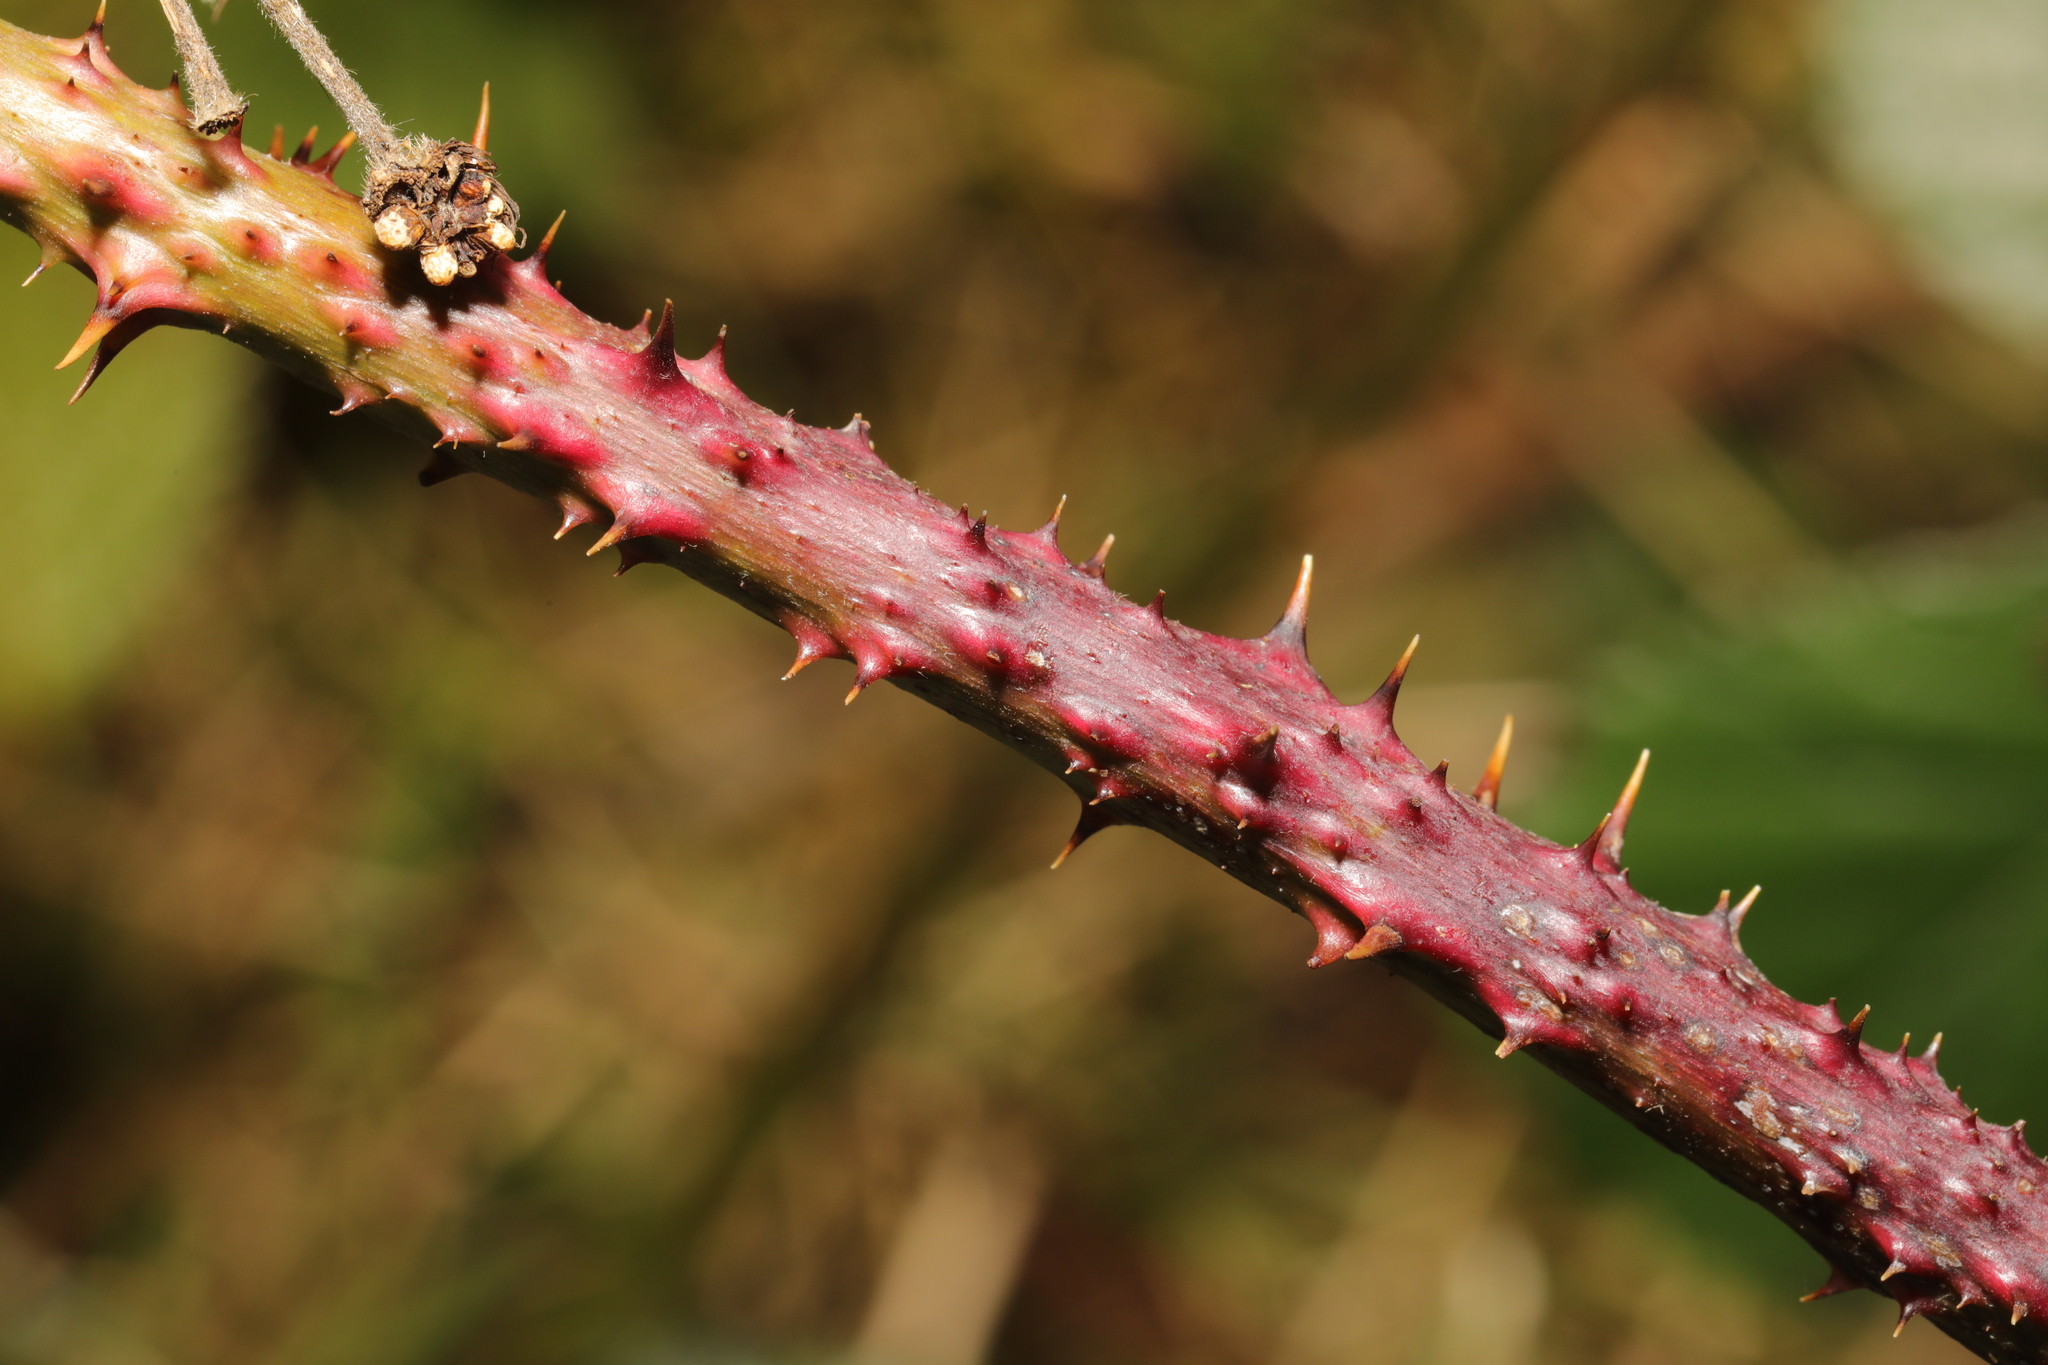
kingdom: Plantae
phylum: Tracheophyta
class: Magnoliopsida
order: Rosales
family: Rosaceae
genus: Rubus
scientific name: Rubus horrefactus
